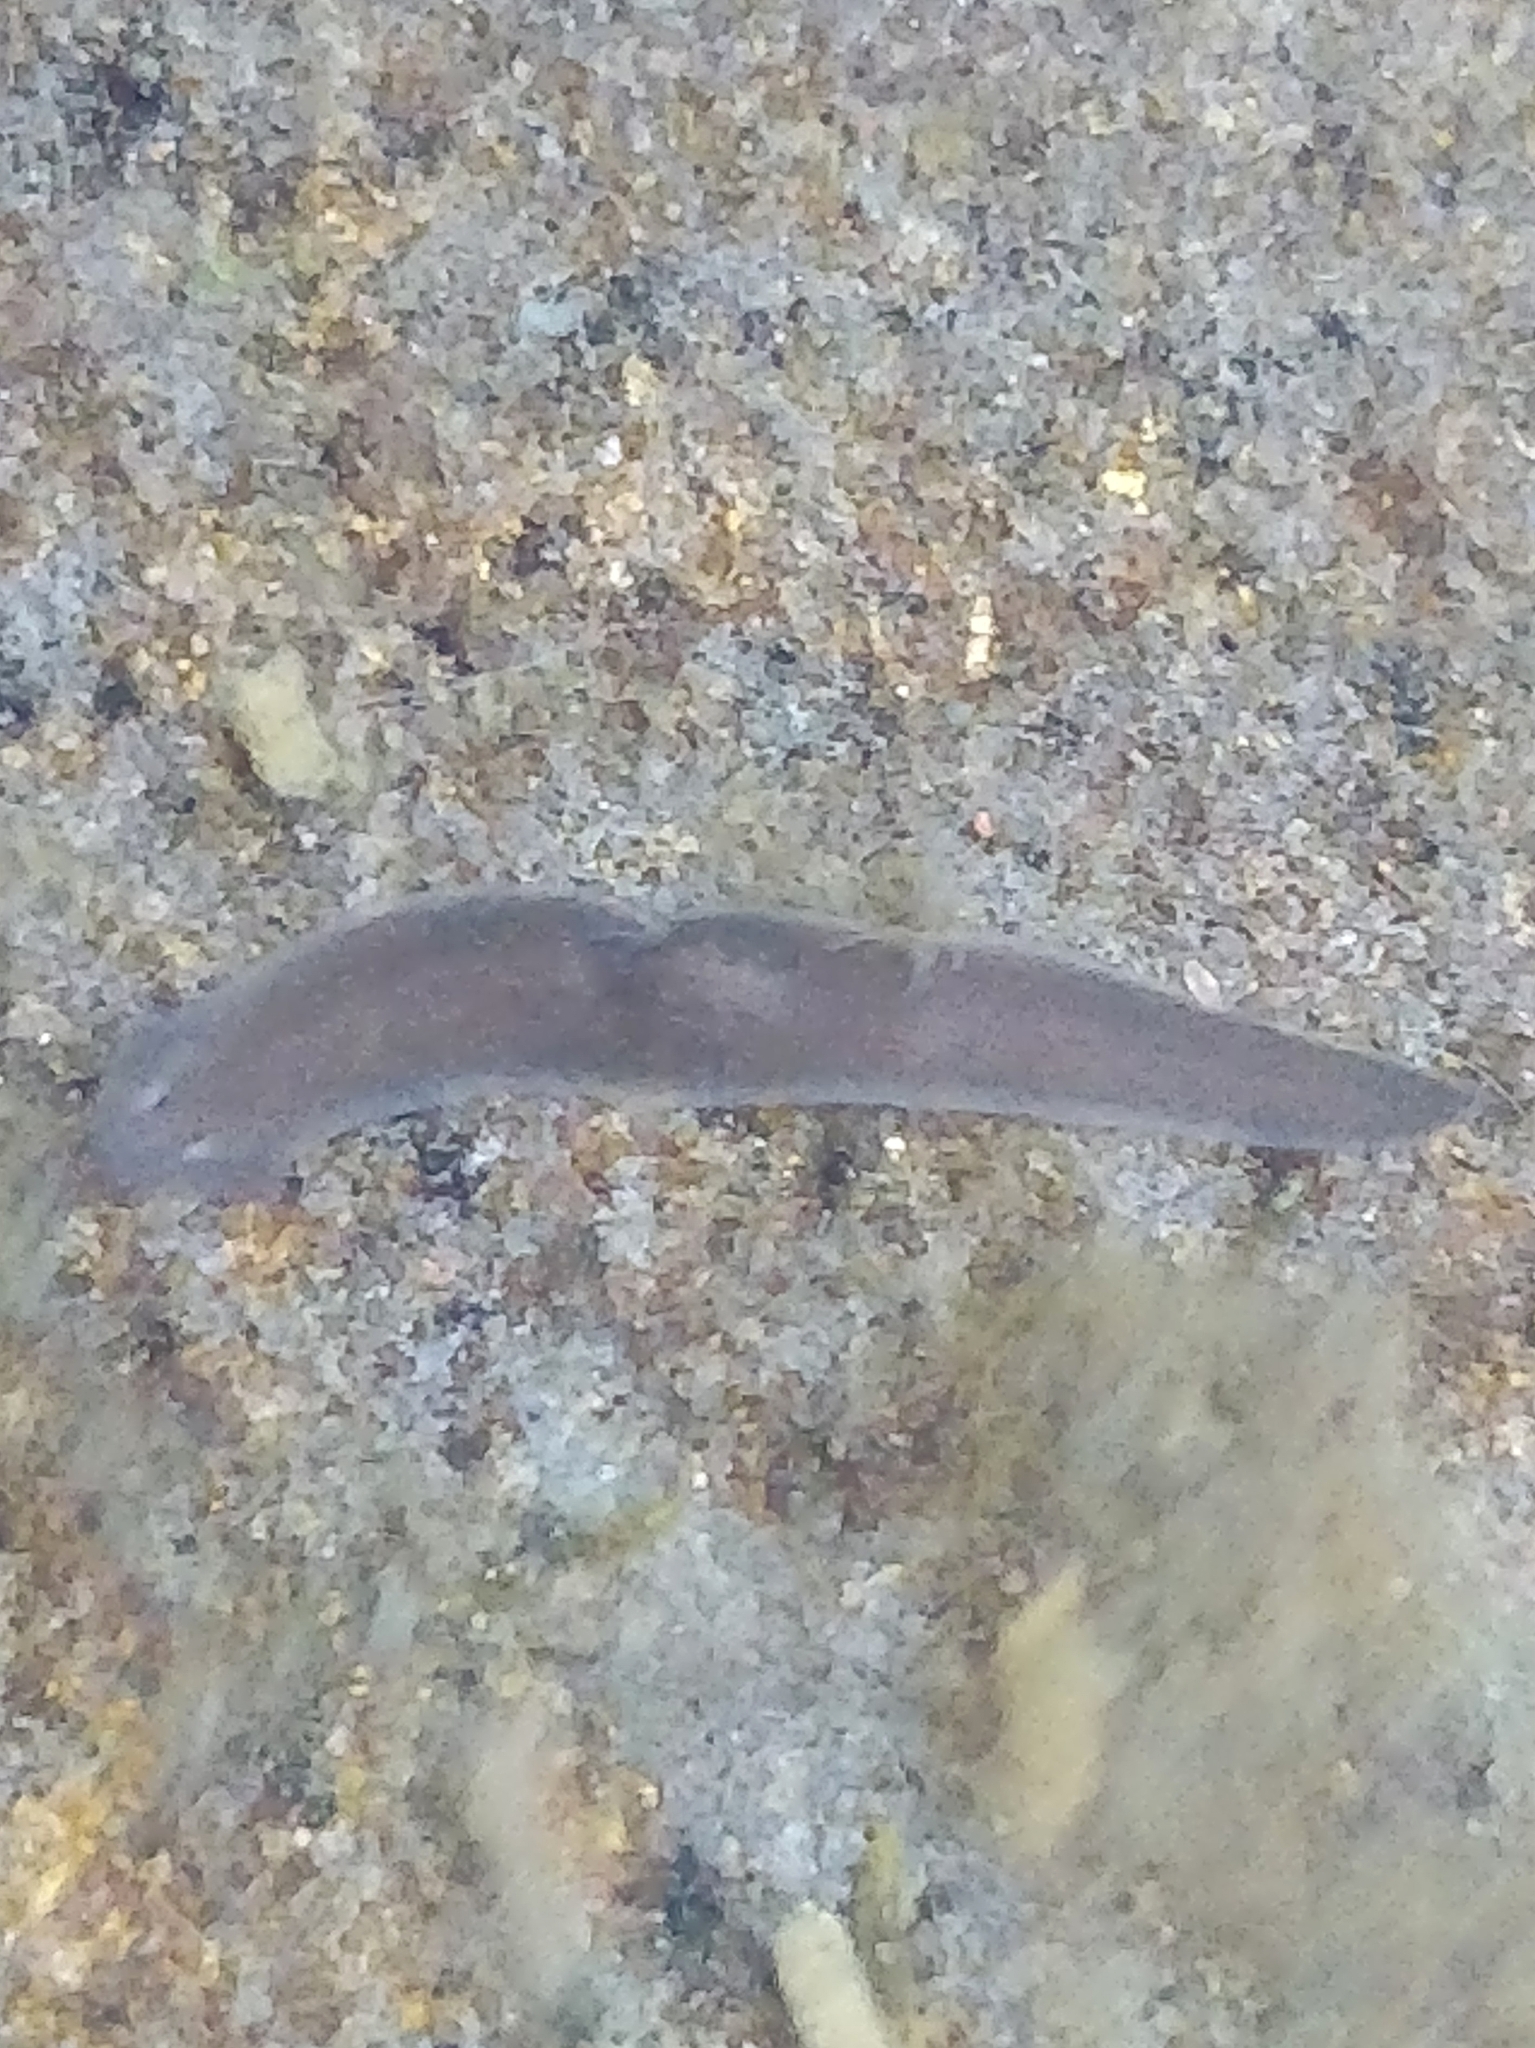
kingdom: Animalia
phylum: Platyhelminthes
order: Tricladida
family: Dugesiidae
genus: Dugesia
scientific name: Dugesia gonocephala
